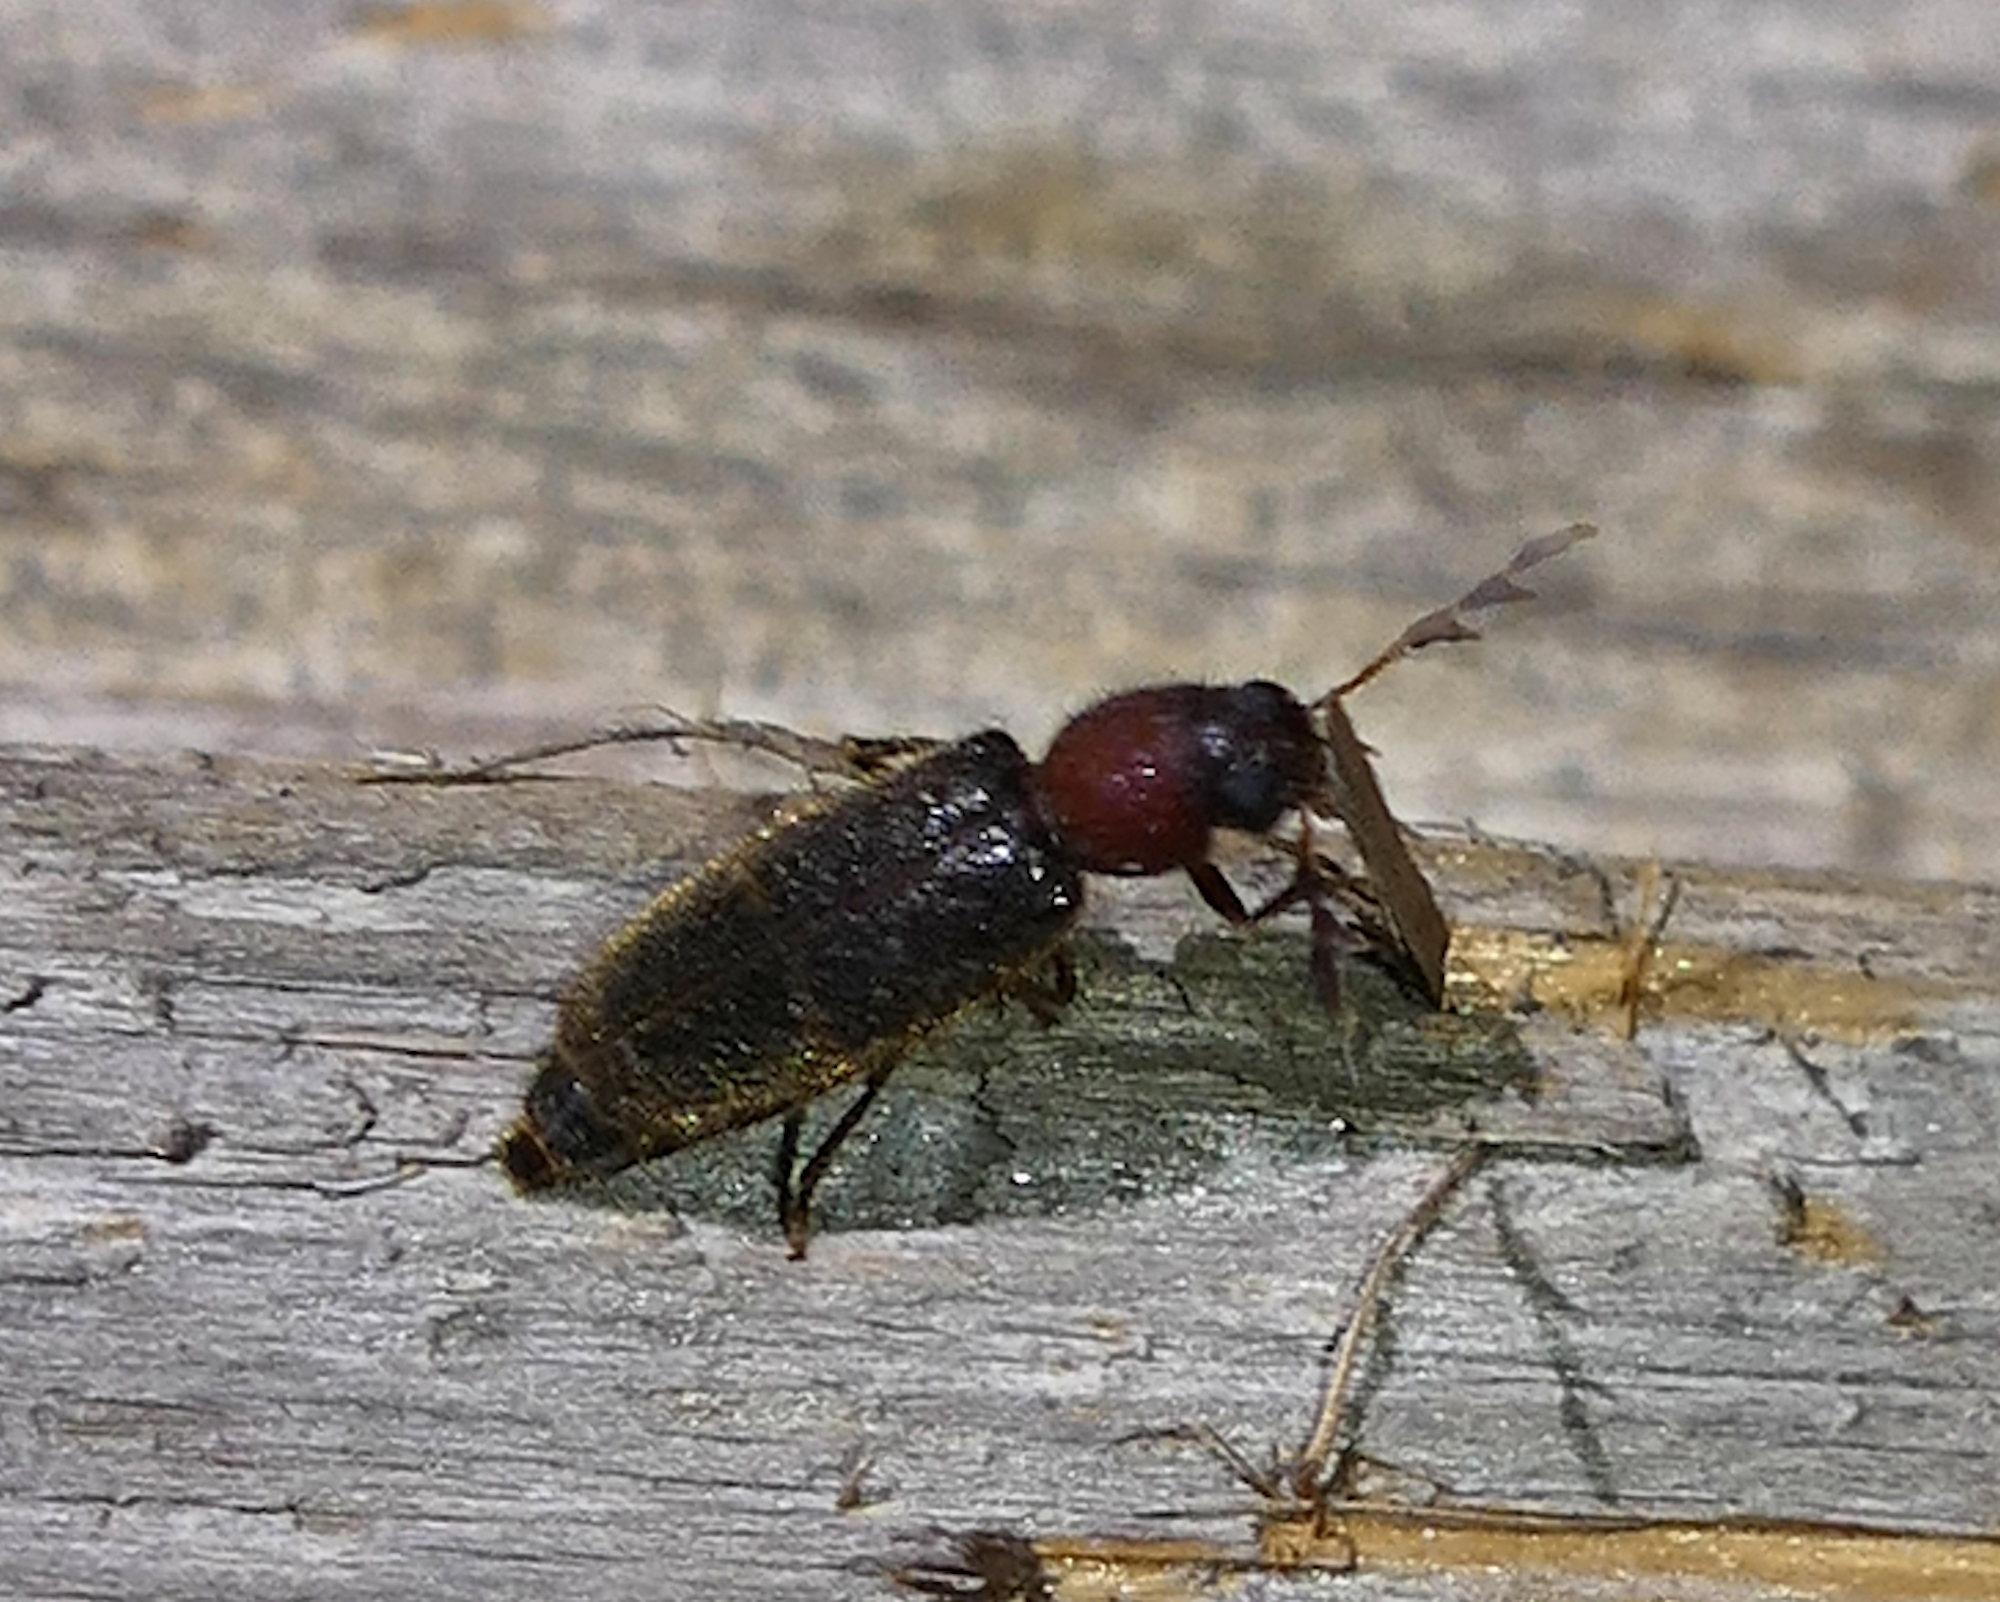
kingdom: Animalia
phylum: Arthropoda
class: Insecta
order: Coleoptera
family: Cleridae
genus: Neorthopleura
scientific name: Neorthopleura thoracica
